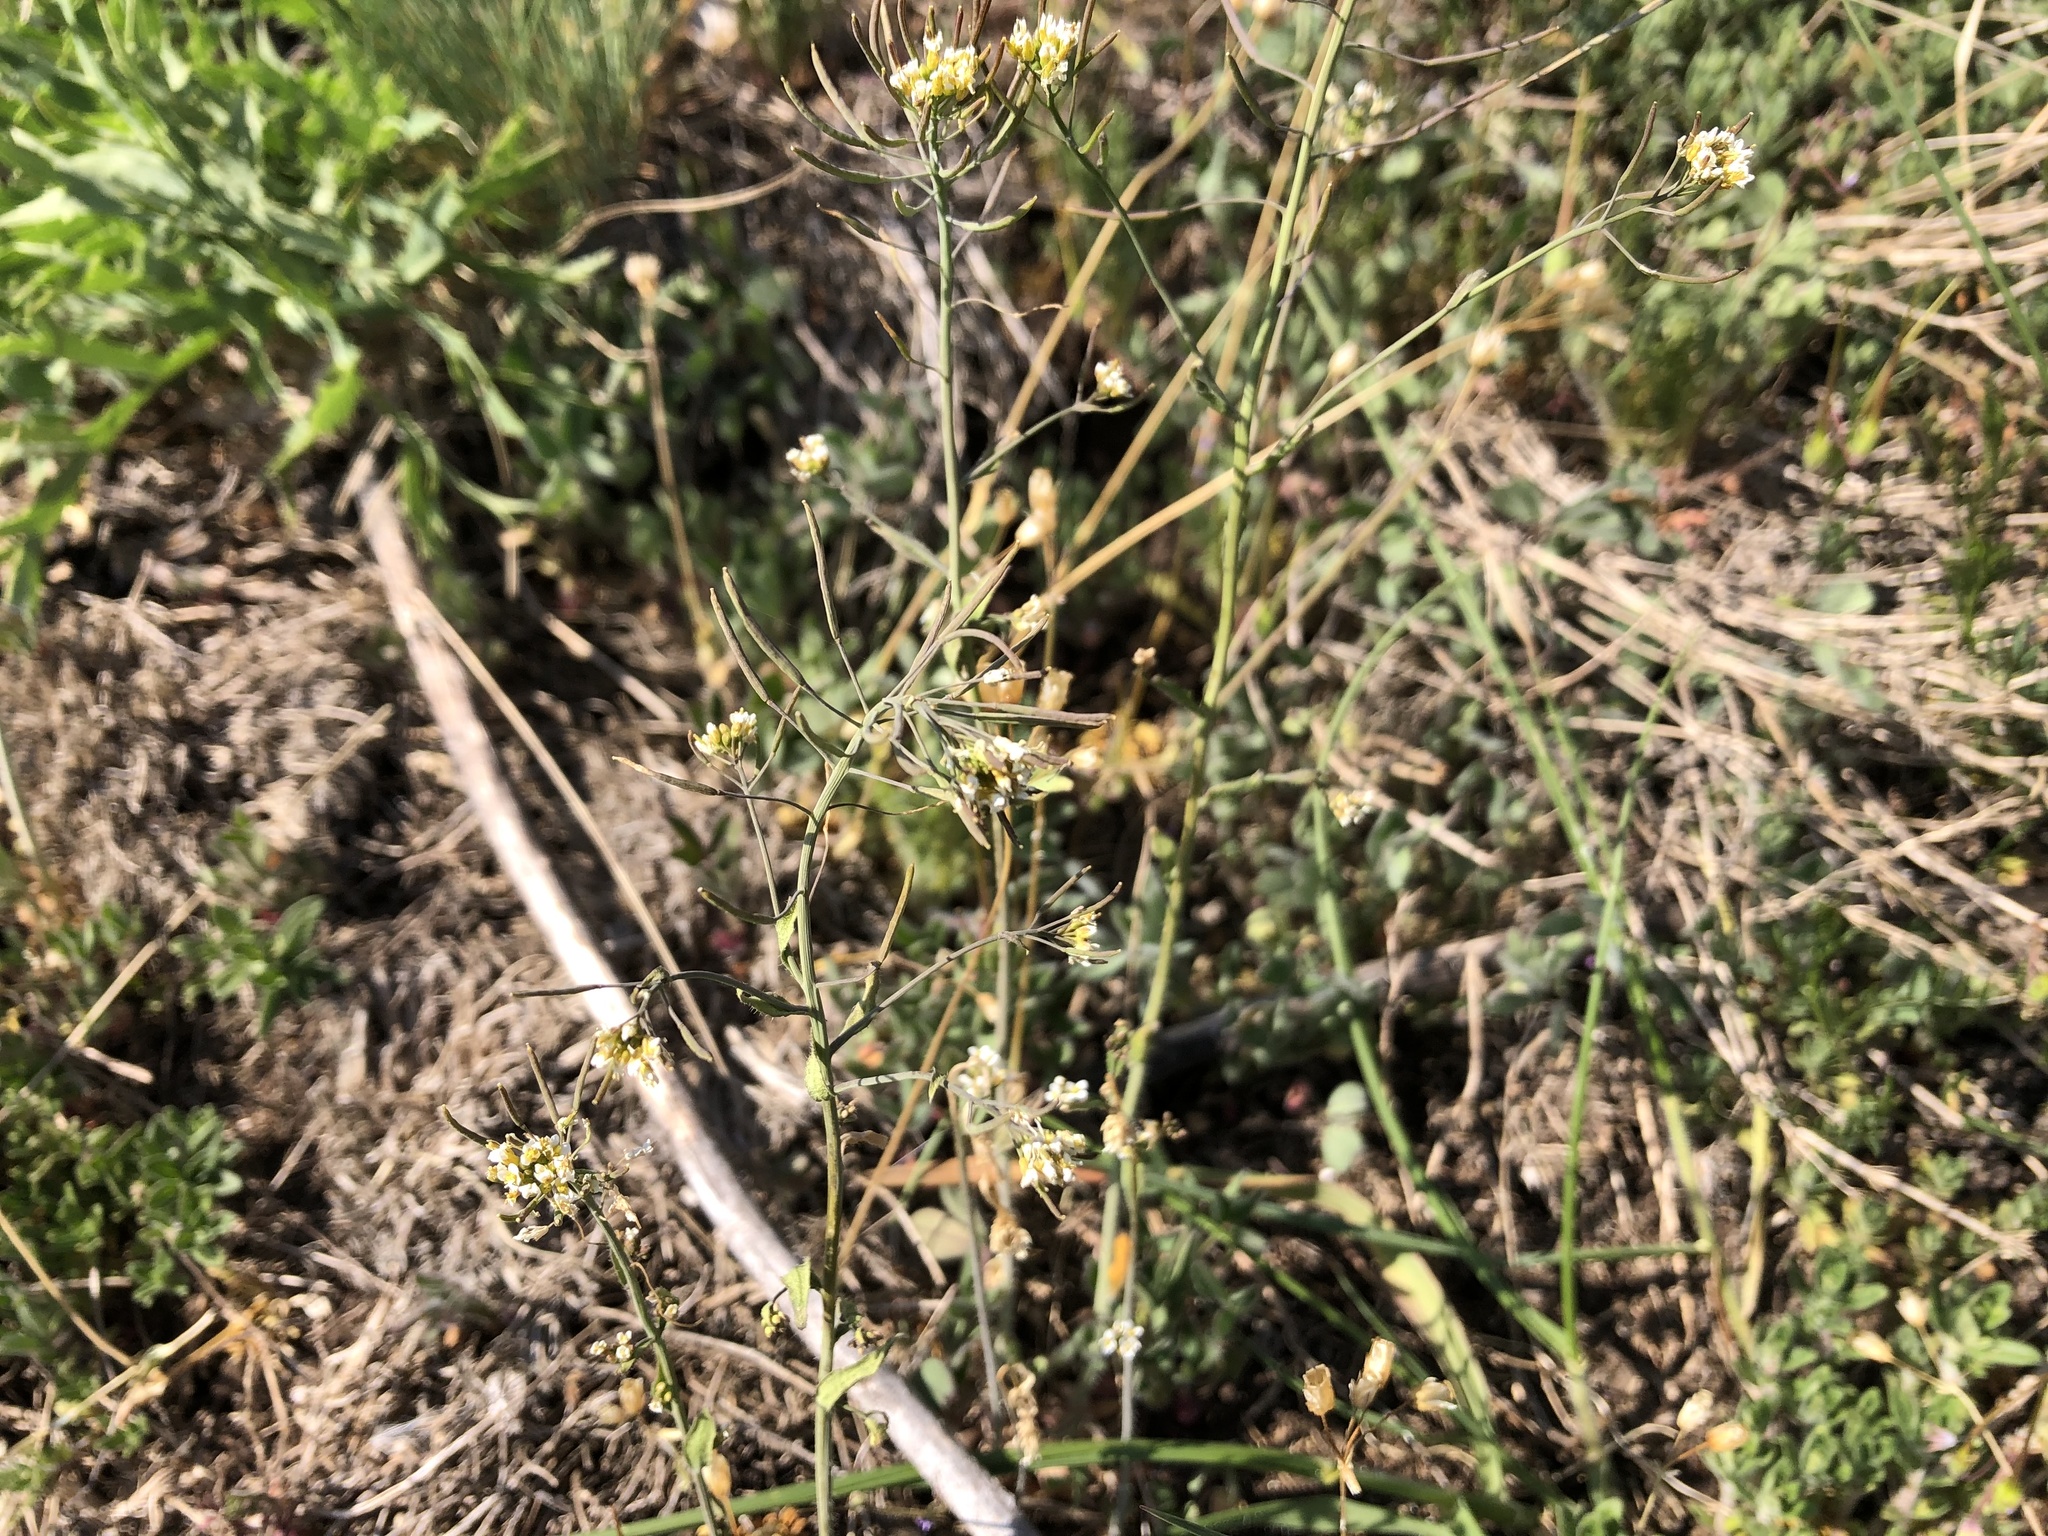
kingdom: Plantae
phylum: Tracheophyta
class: Magnoliopsida
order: Brassicales
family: Brassicaceae
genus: Arabidopsis
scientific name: Arabidopsis thaliana
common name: Thale cress
